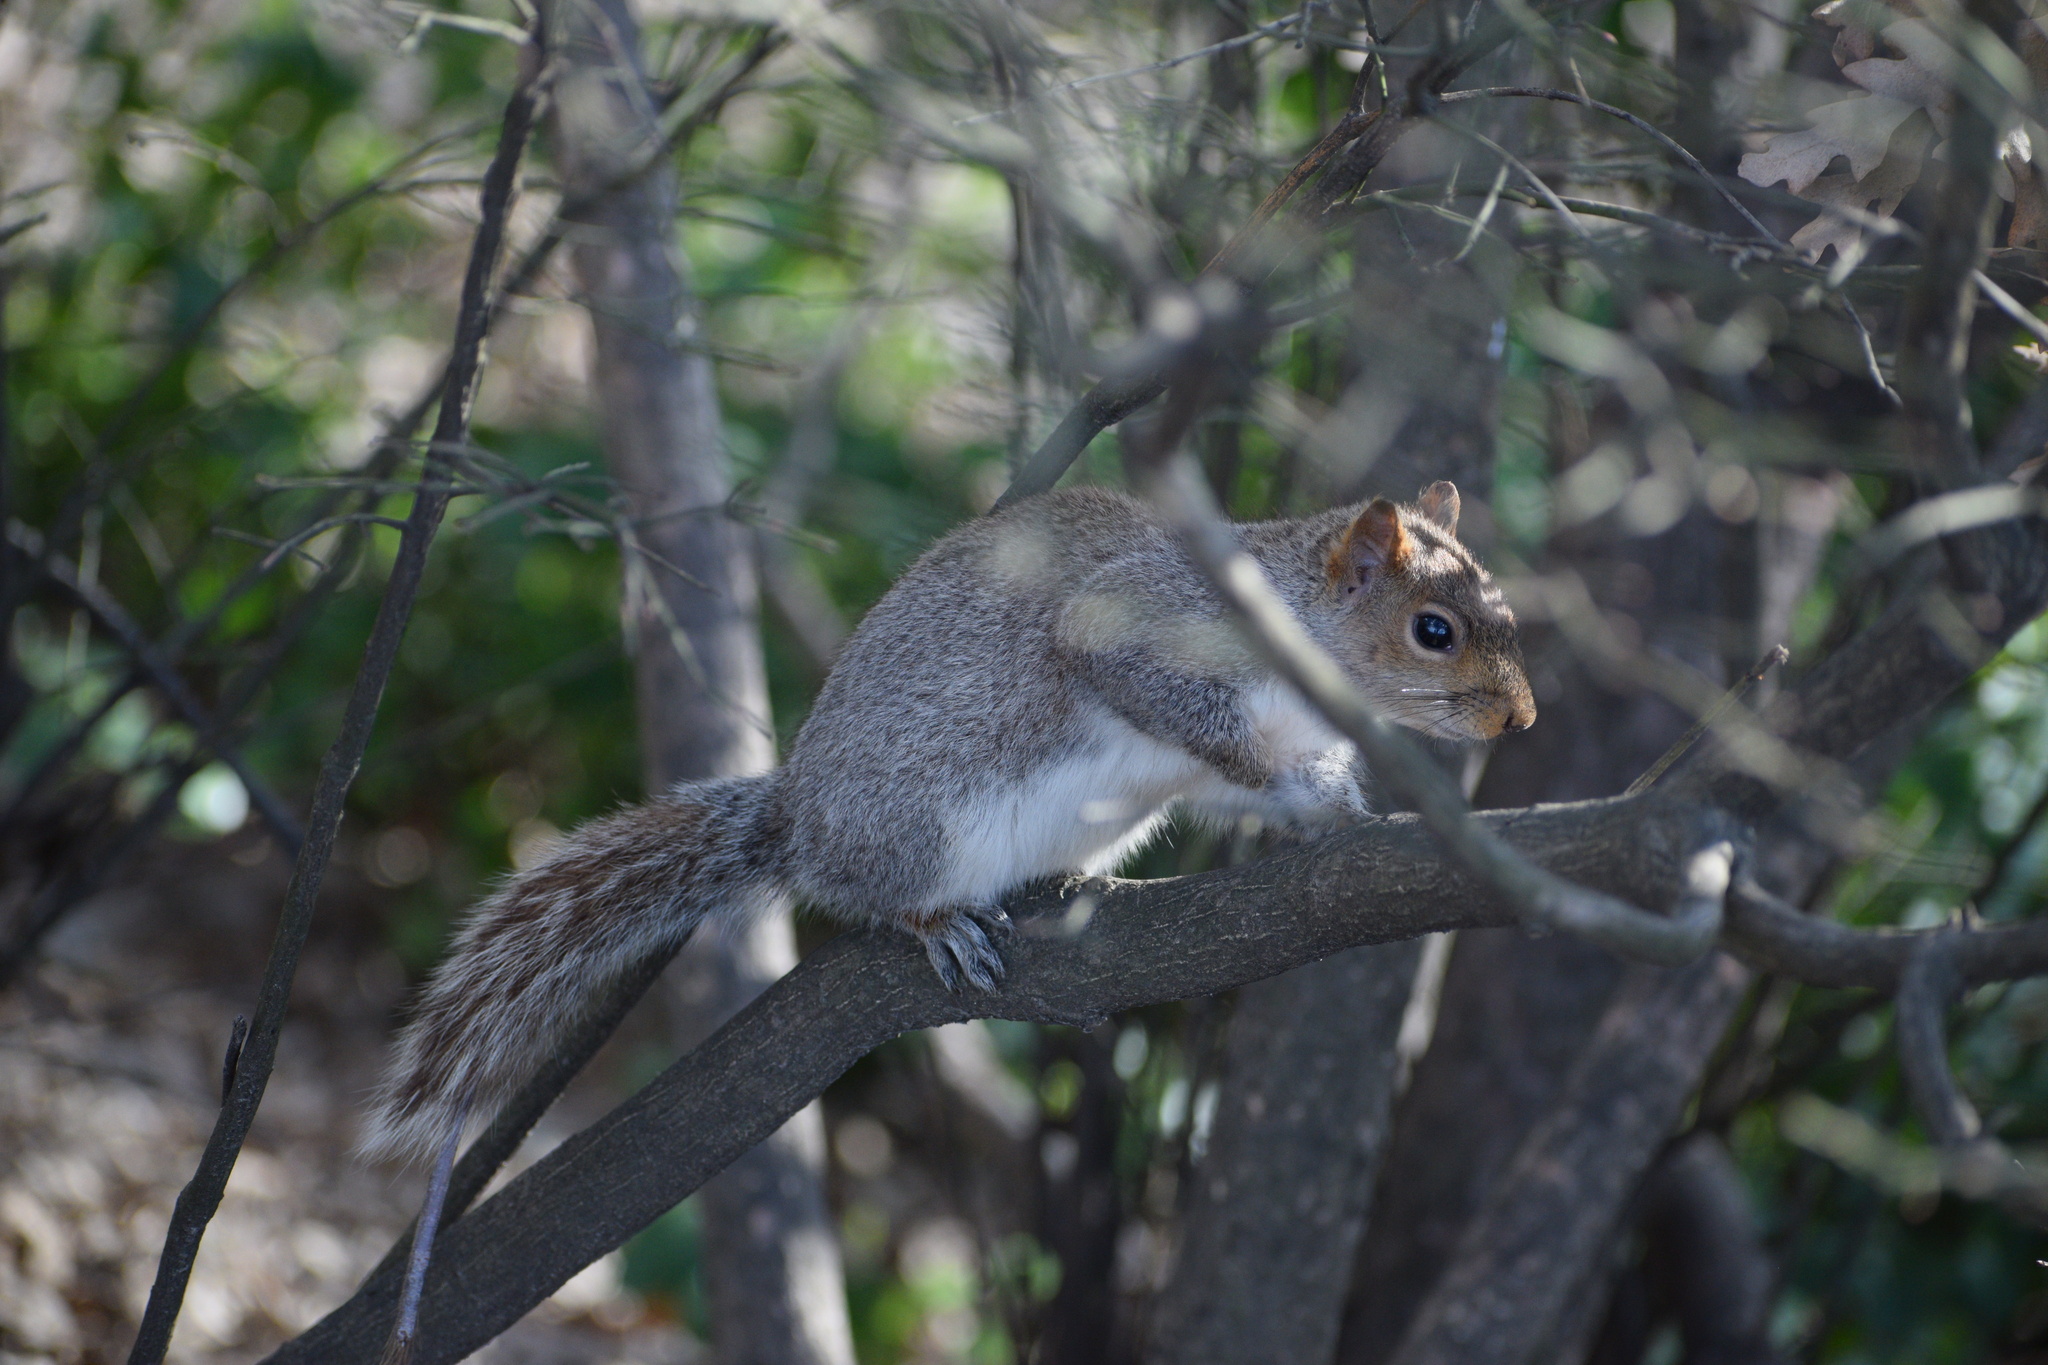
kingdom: Animalia
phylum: Chordata
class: Mammalia
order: Rodentia
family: Sciuridae
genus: Sciurus
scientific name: Sciurus carolinensis
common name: Eastern gray squirrel
